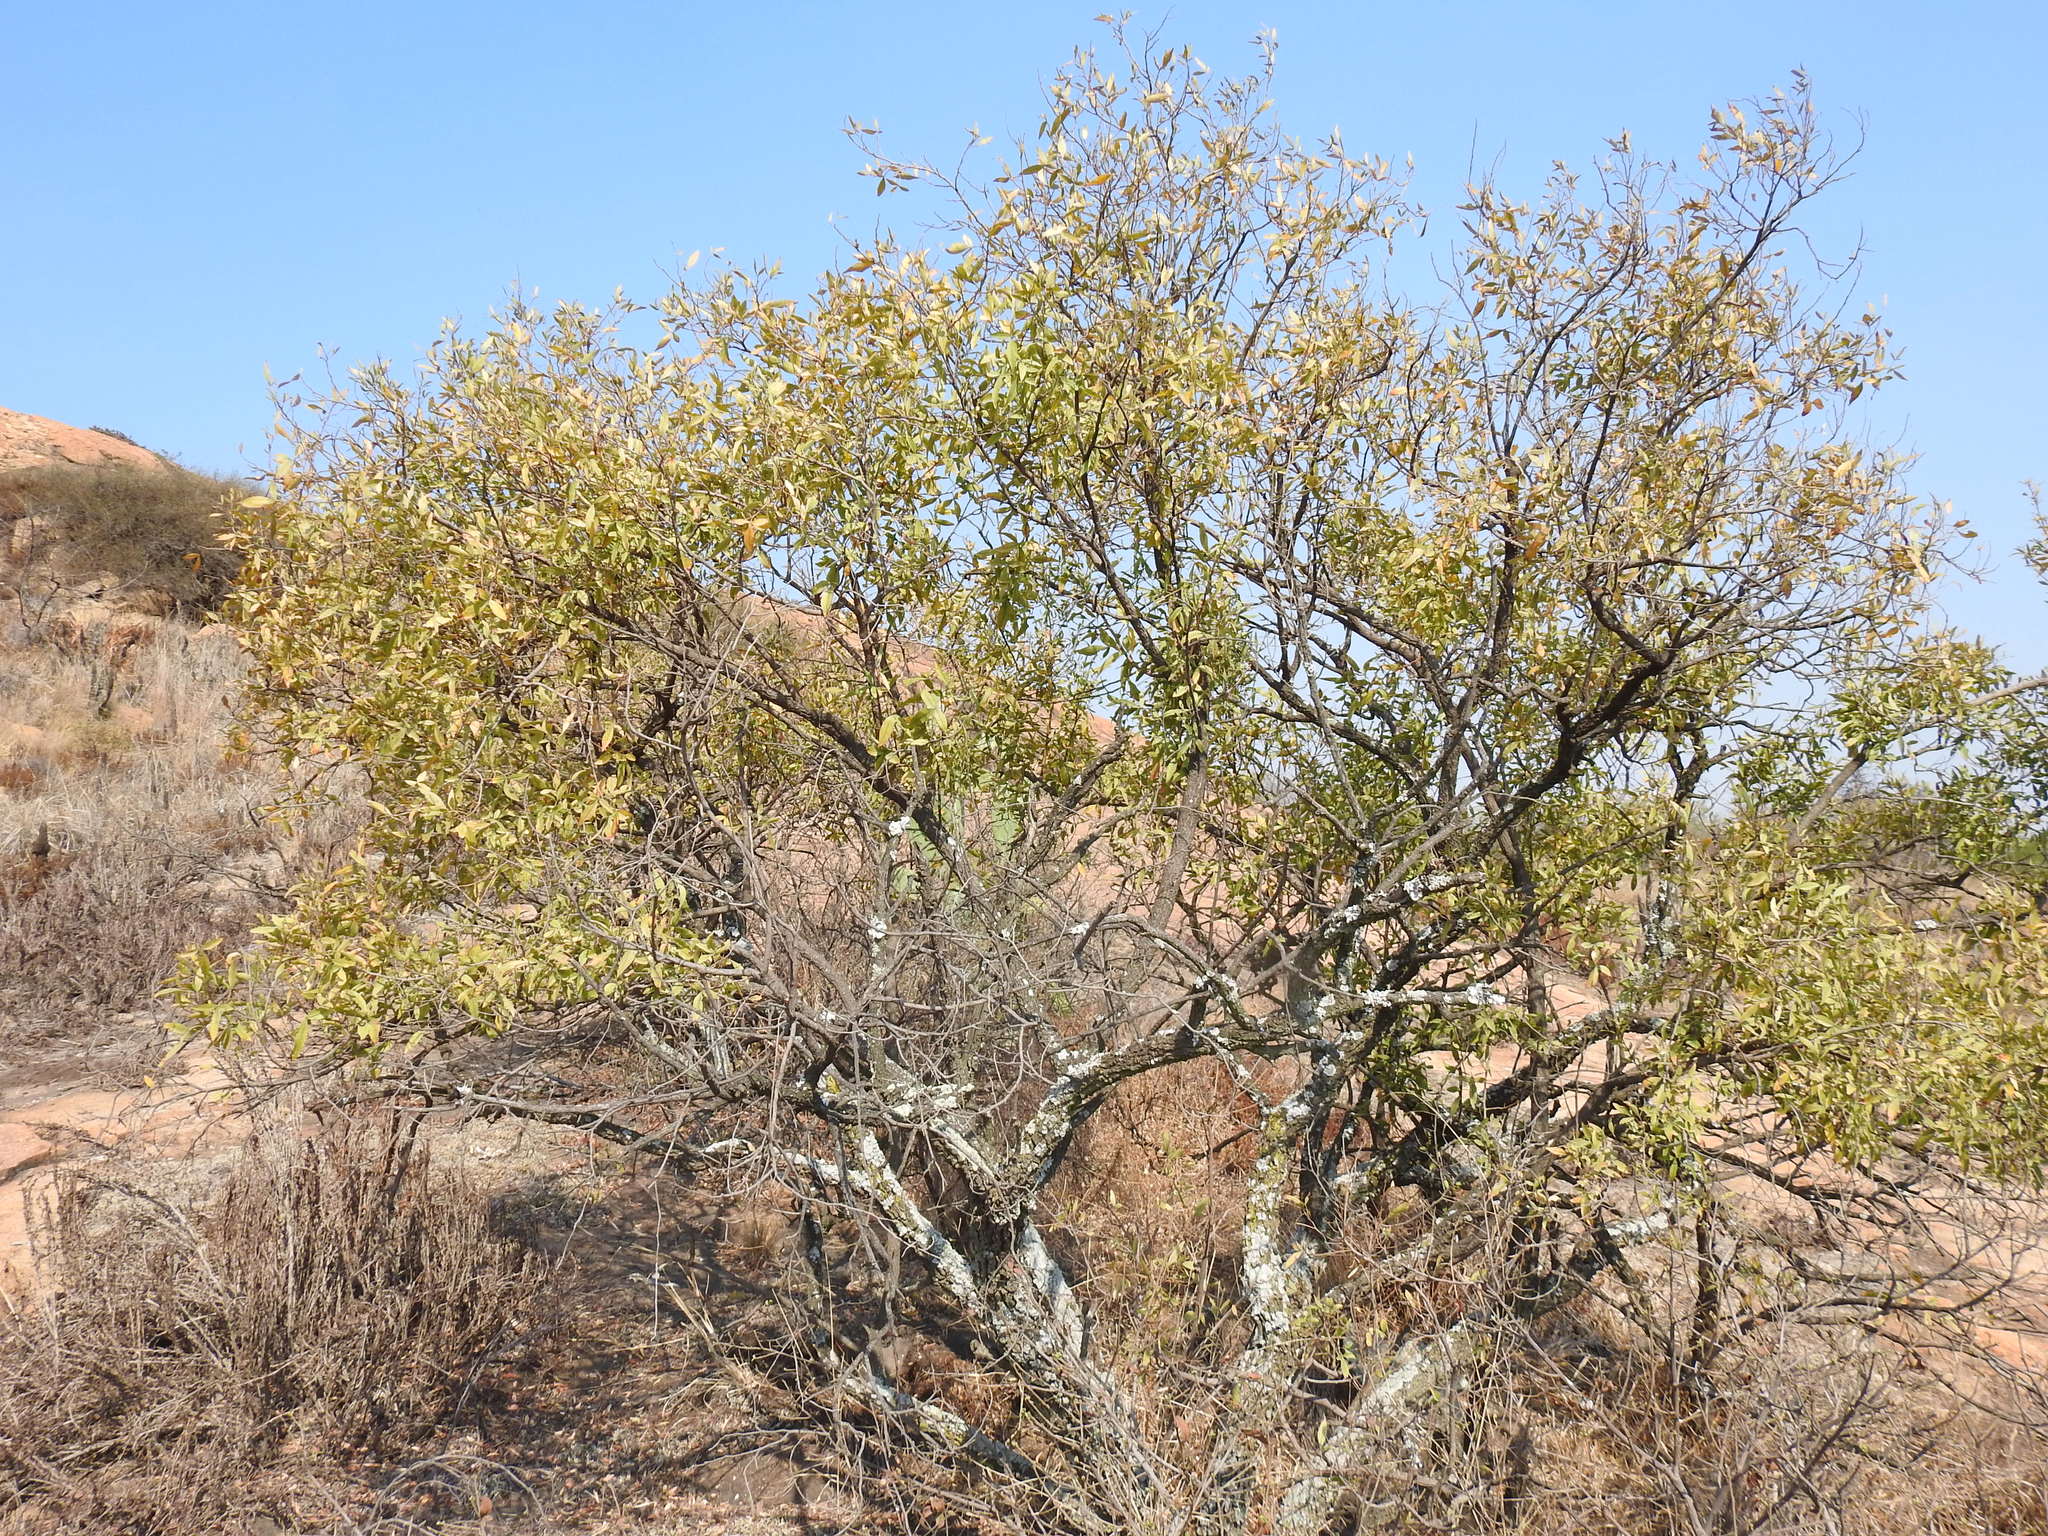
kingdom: Plantae
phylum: Tracheophyta
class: Magnoliopsida
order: Sapindales
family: Anacardiaceae
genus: Searsia
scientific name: Searsia leptodictya
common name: Mountain karee
